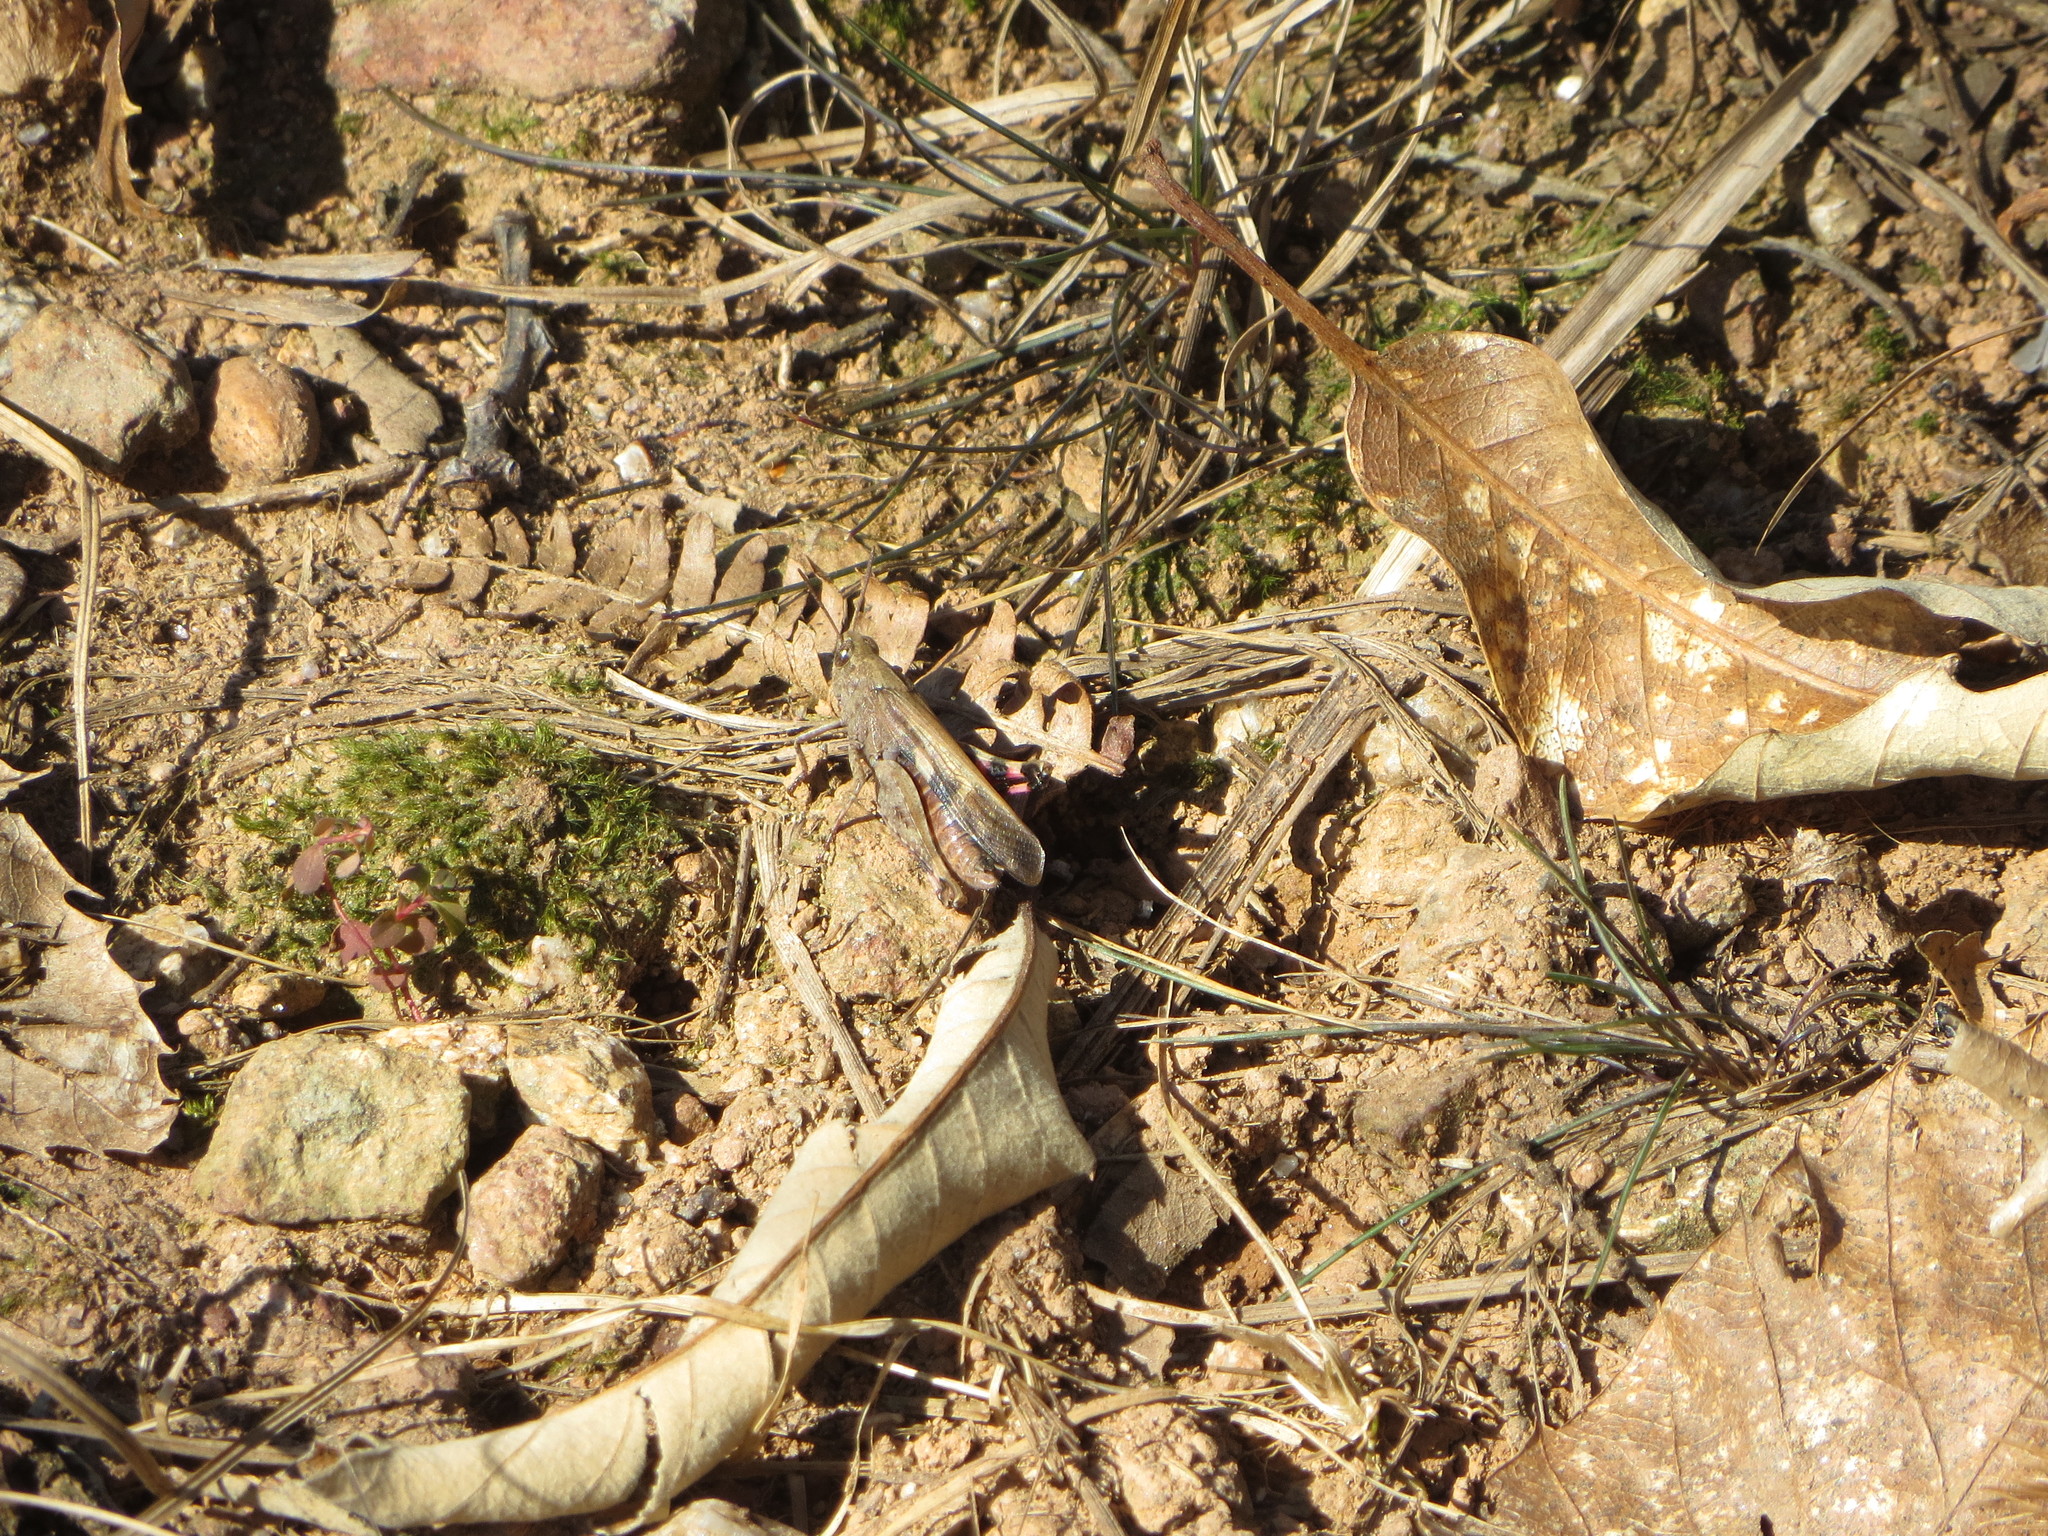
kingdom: Animalia
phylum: Arthropoda
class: Insecta
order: Orthoptera
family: Acrididae
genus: Aiolopus
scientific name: Aiolopus strepens
